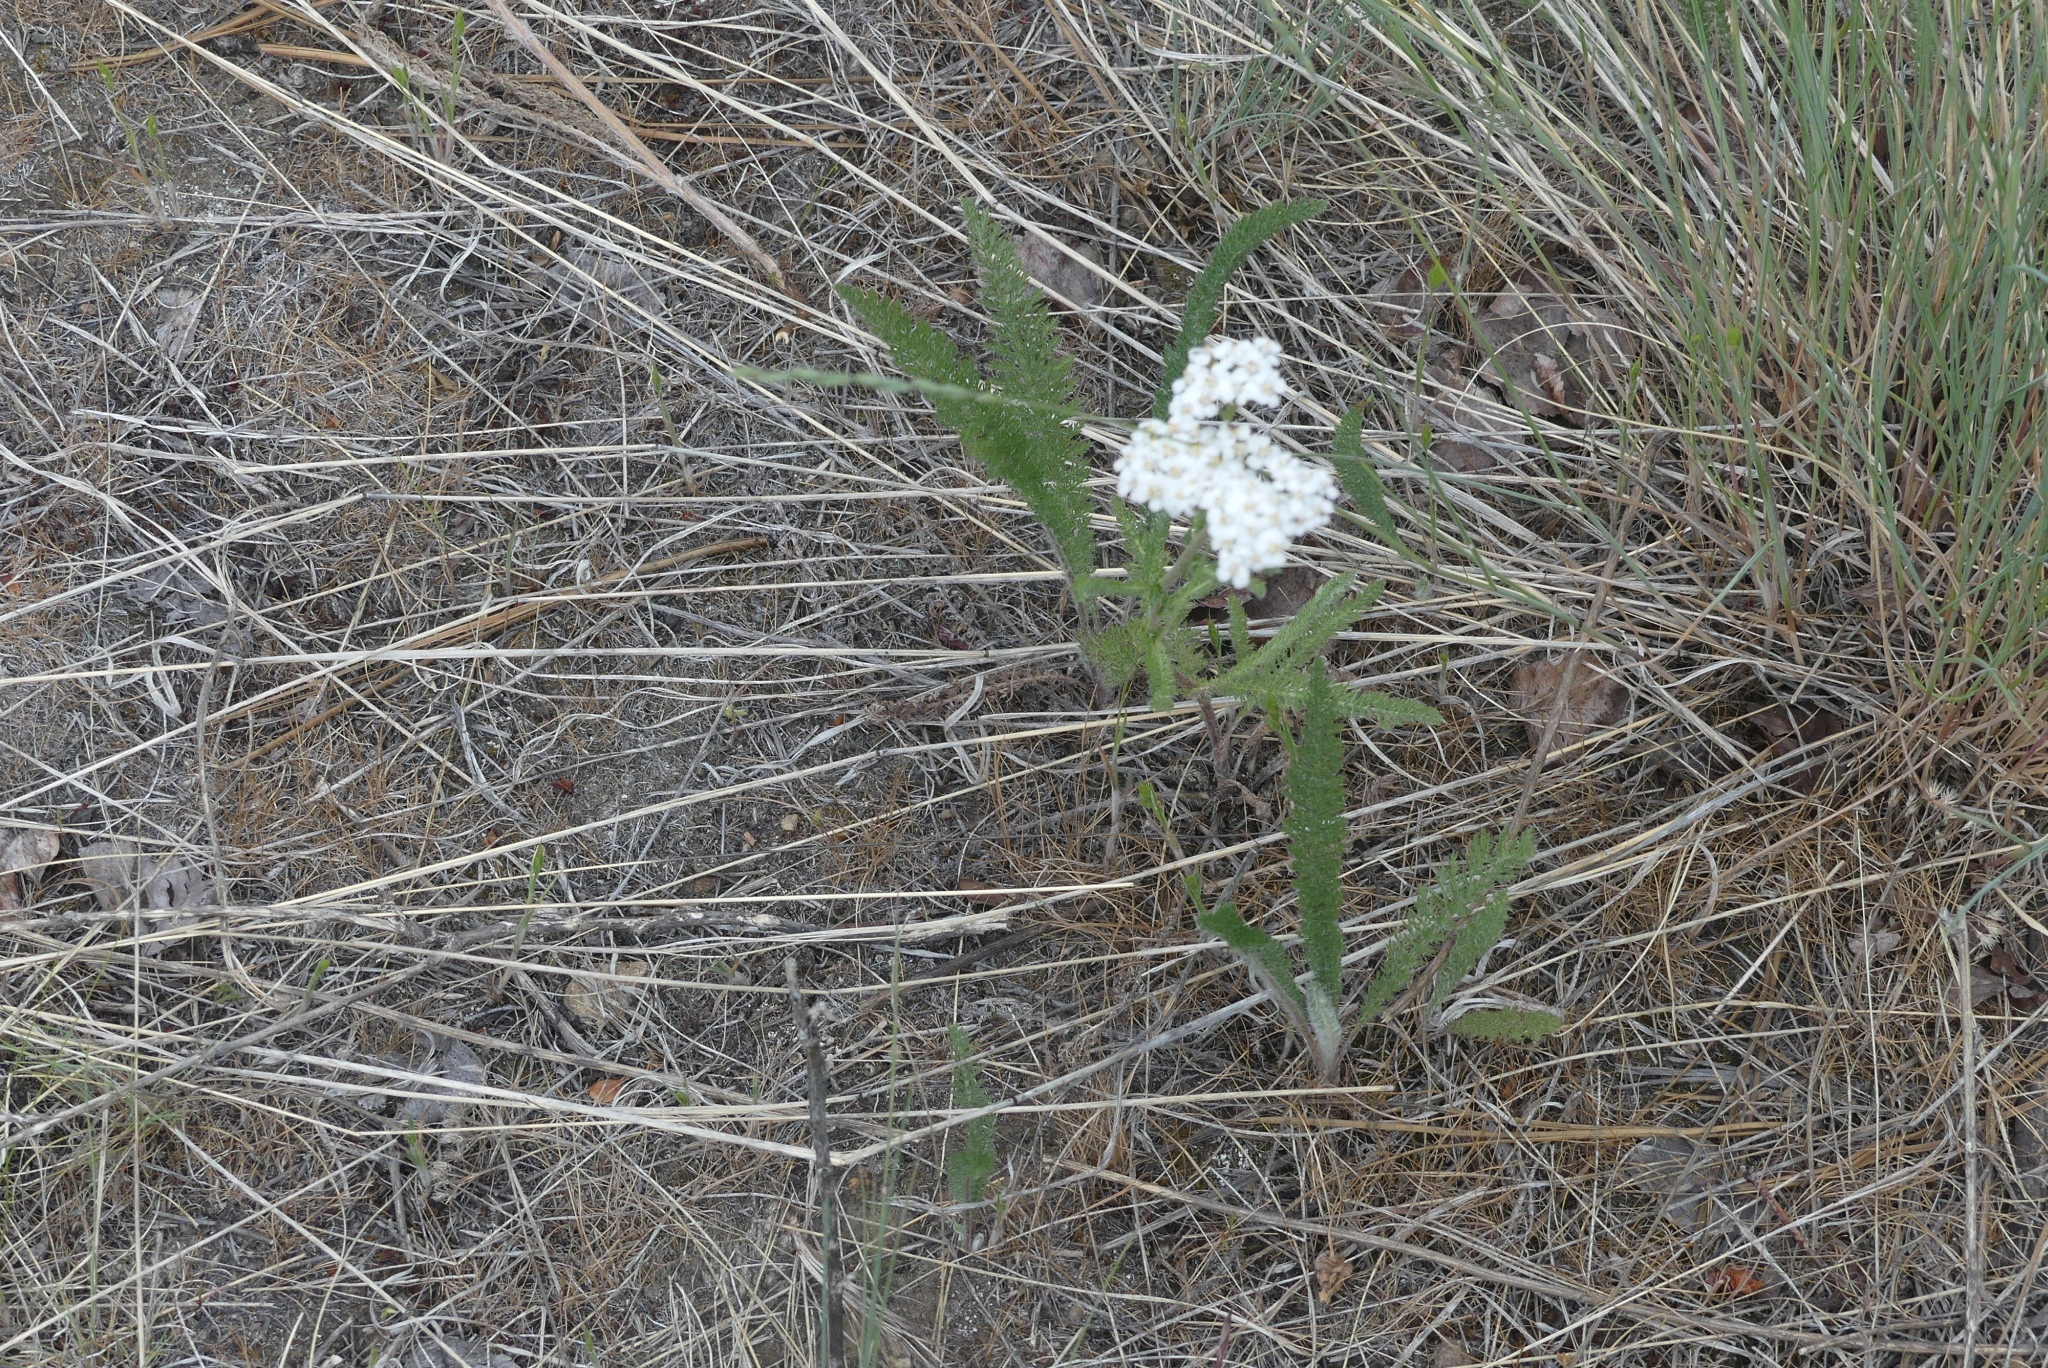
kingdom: Plantae
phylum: Tracheophyta
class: Magnoliopsida
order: Asterales
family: Asteraceae
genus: Achillea
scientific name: Achillea millefolium
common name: Yarrow
